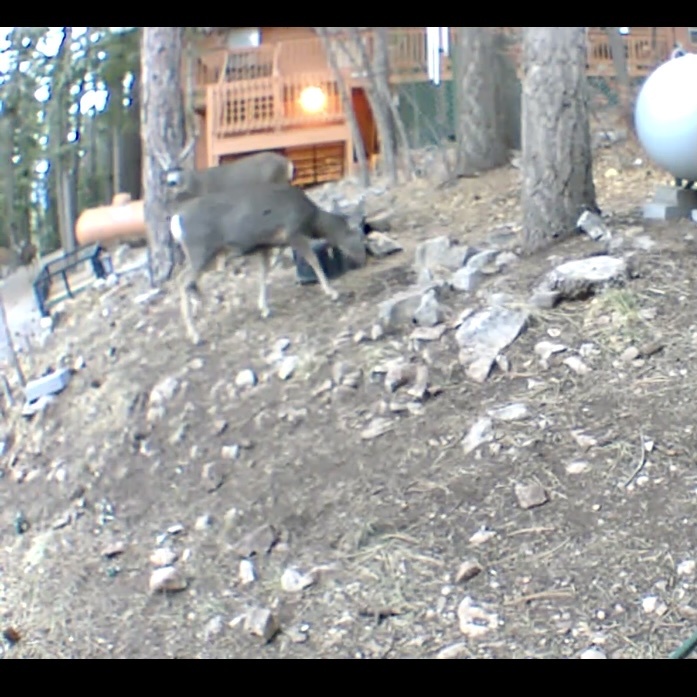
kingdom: Animalia
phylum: Chordata
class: Mammalia
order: Artiodactyla
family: Cervidae
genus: Odocoileus
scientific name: Odocoileus hemionus
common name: Mule deer
